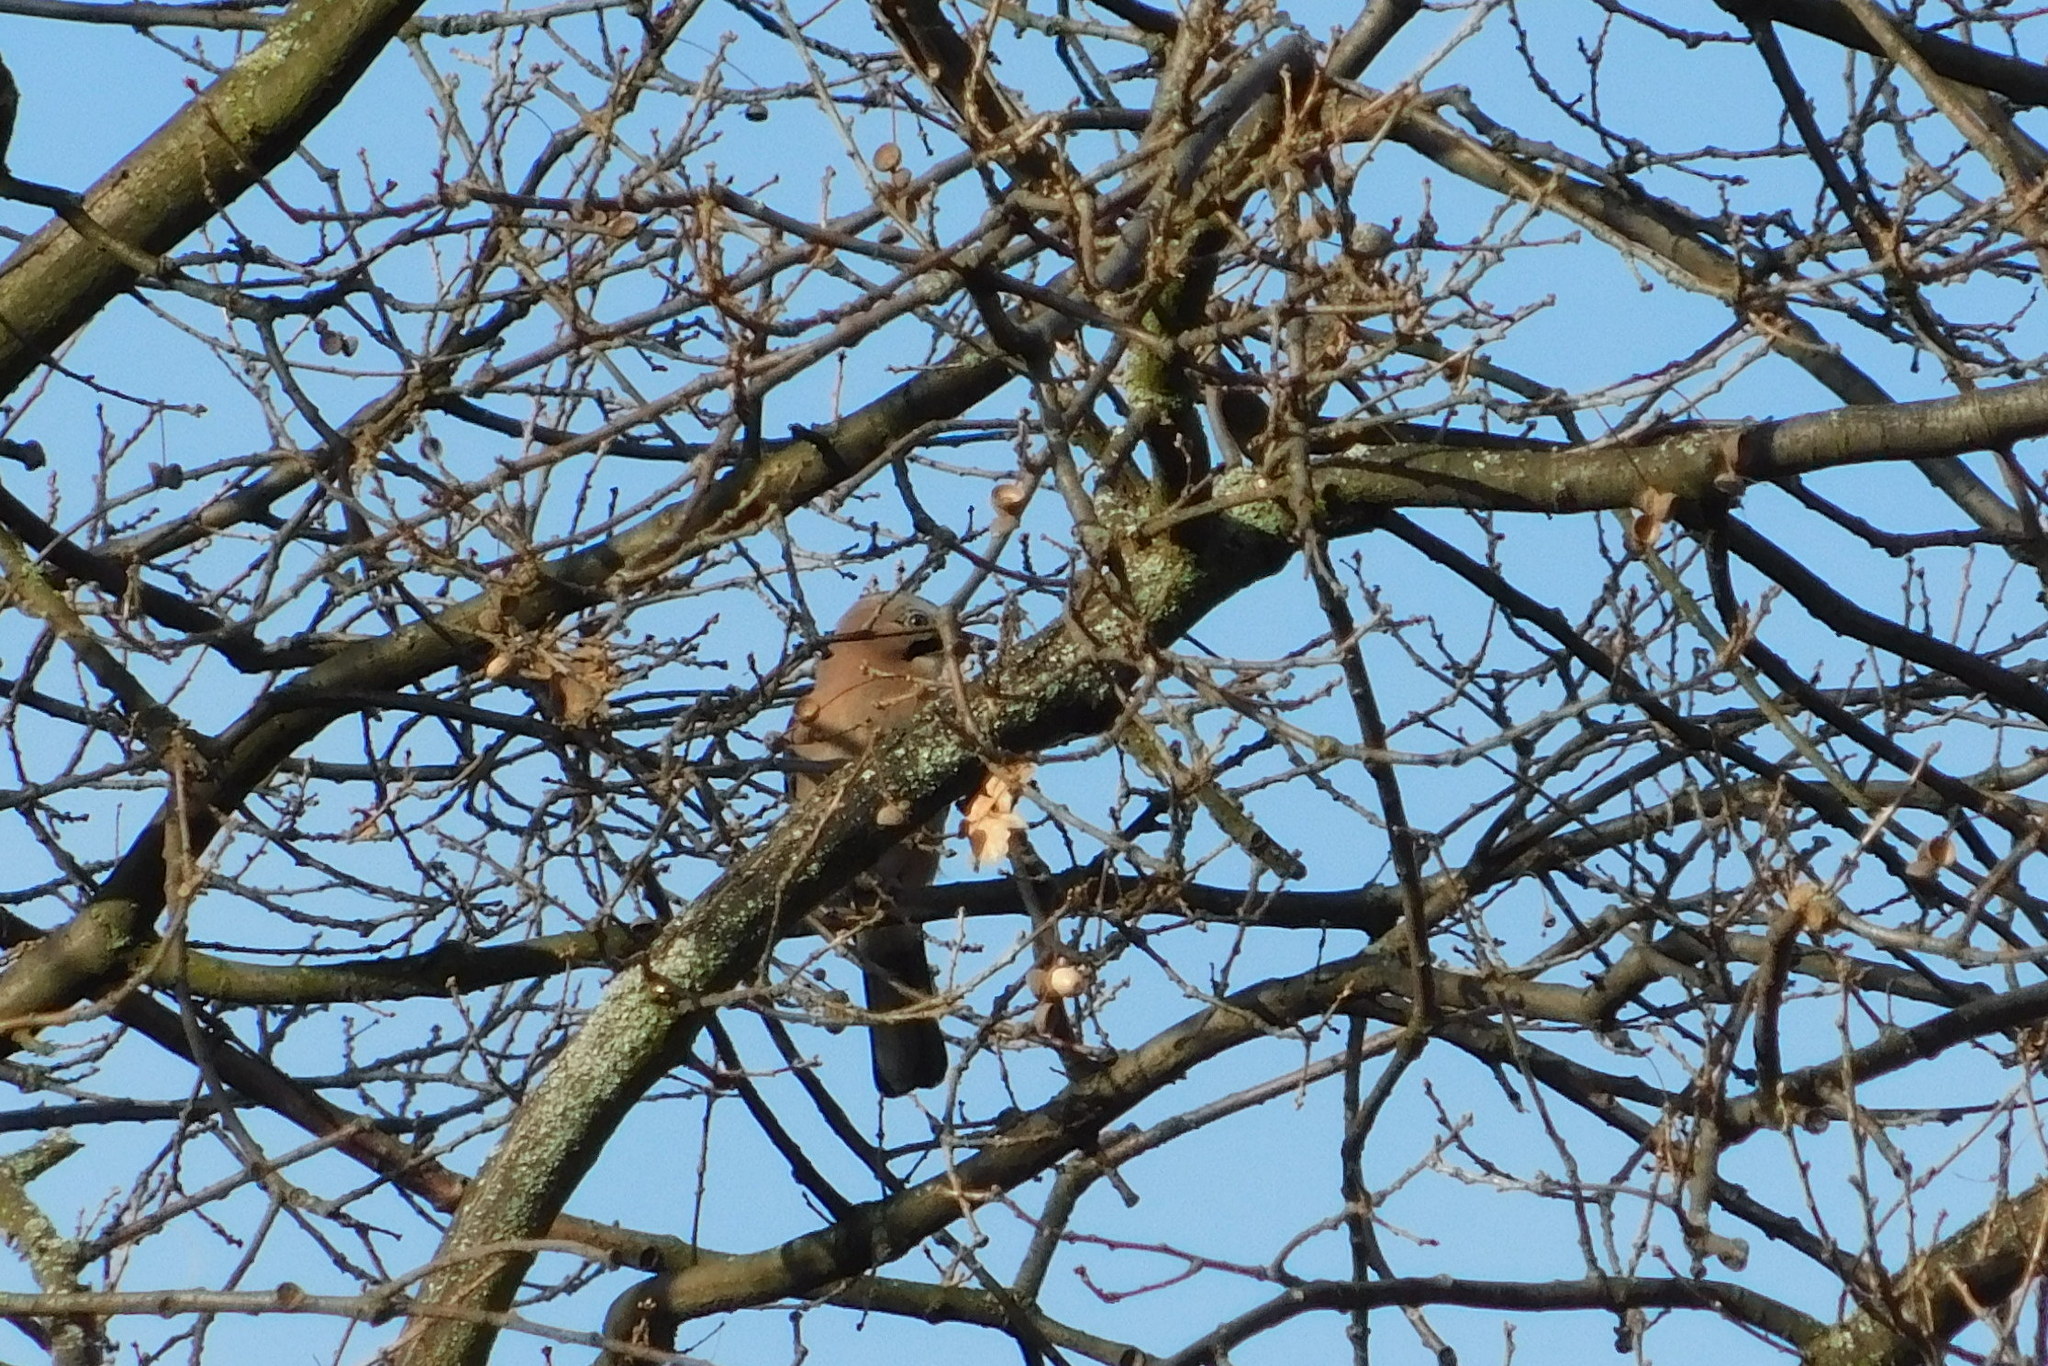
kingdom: Animalia
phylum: Chordata
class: Aves
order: Passeriformes
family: Corvidae
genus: Garrulus
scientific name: Garrulus glandarius
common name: Eurasian jay
